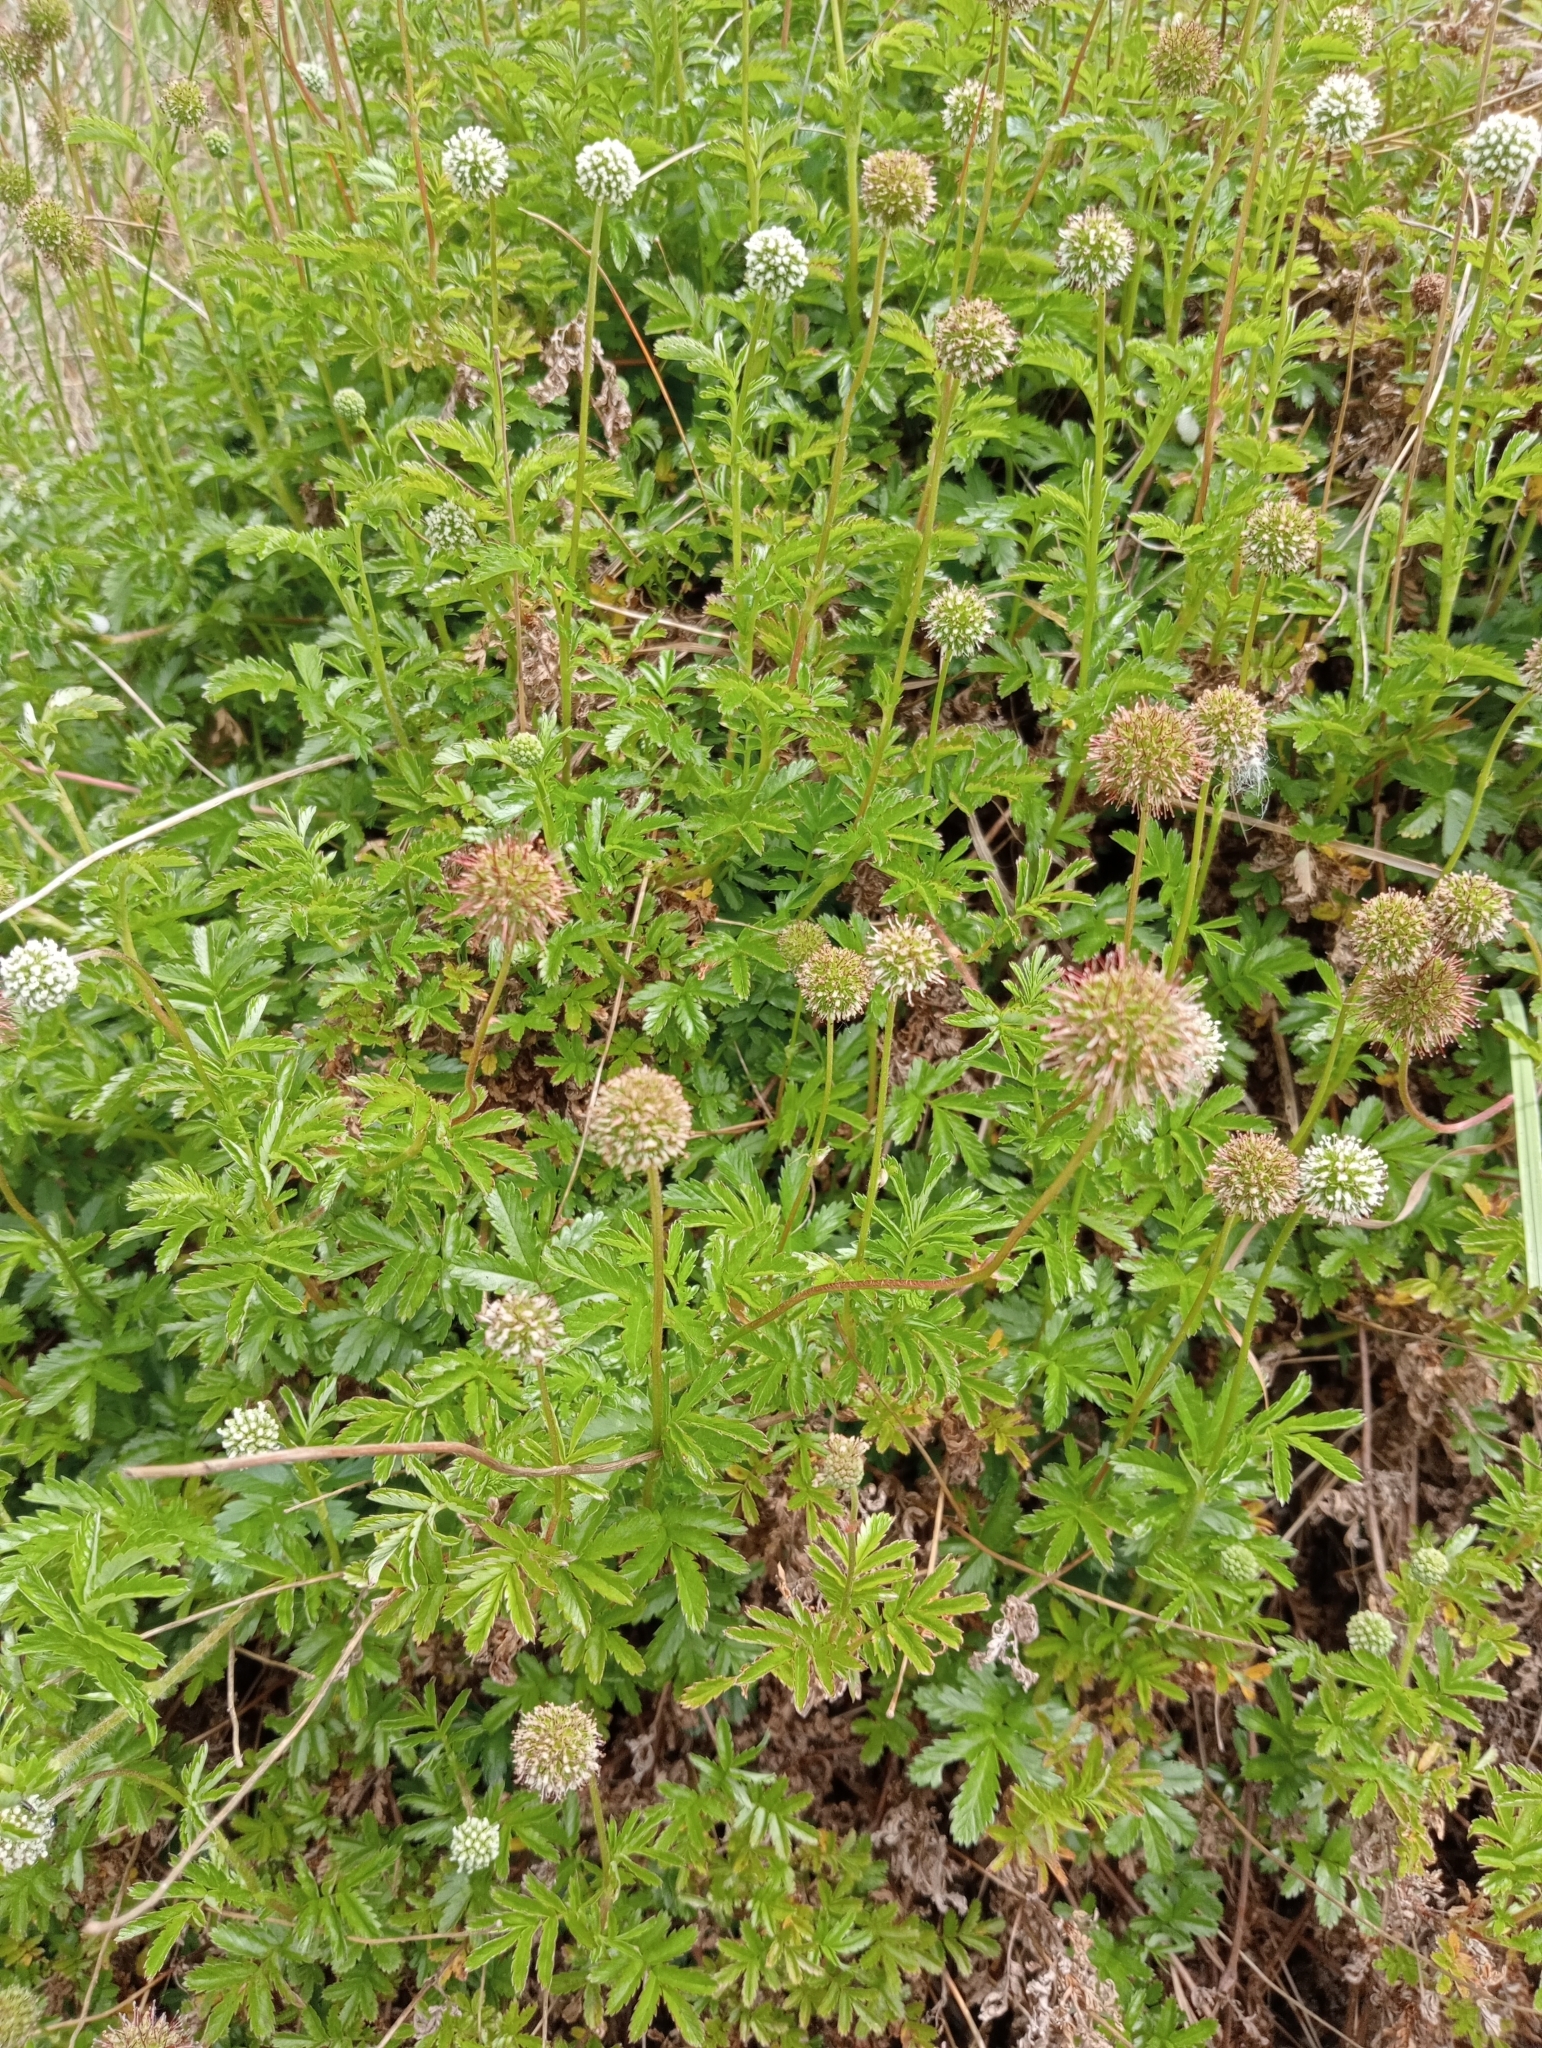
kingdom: Plantae
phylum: Tracheophyta
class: Magnoliopsida
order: Rosales
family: Rosaceae
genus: Acaena
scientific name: Acaena novae-zelandiae
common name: Pirri-pirri-bur
